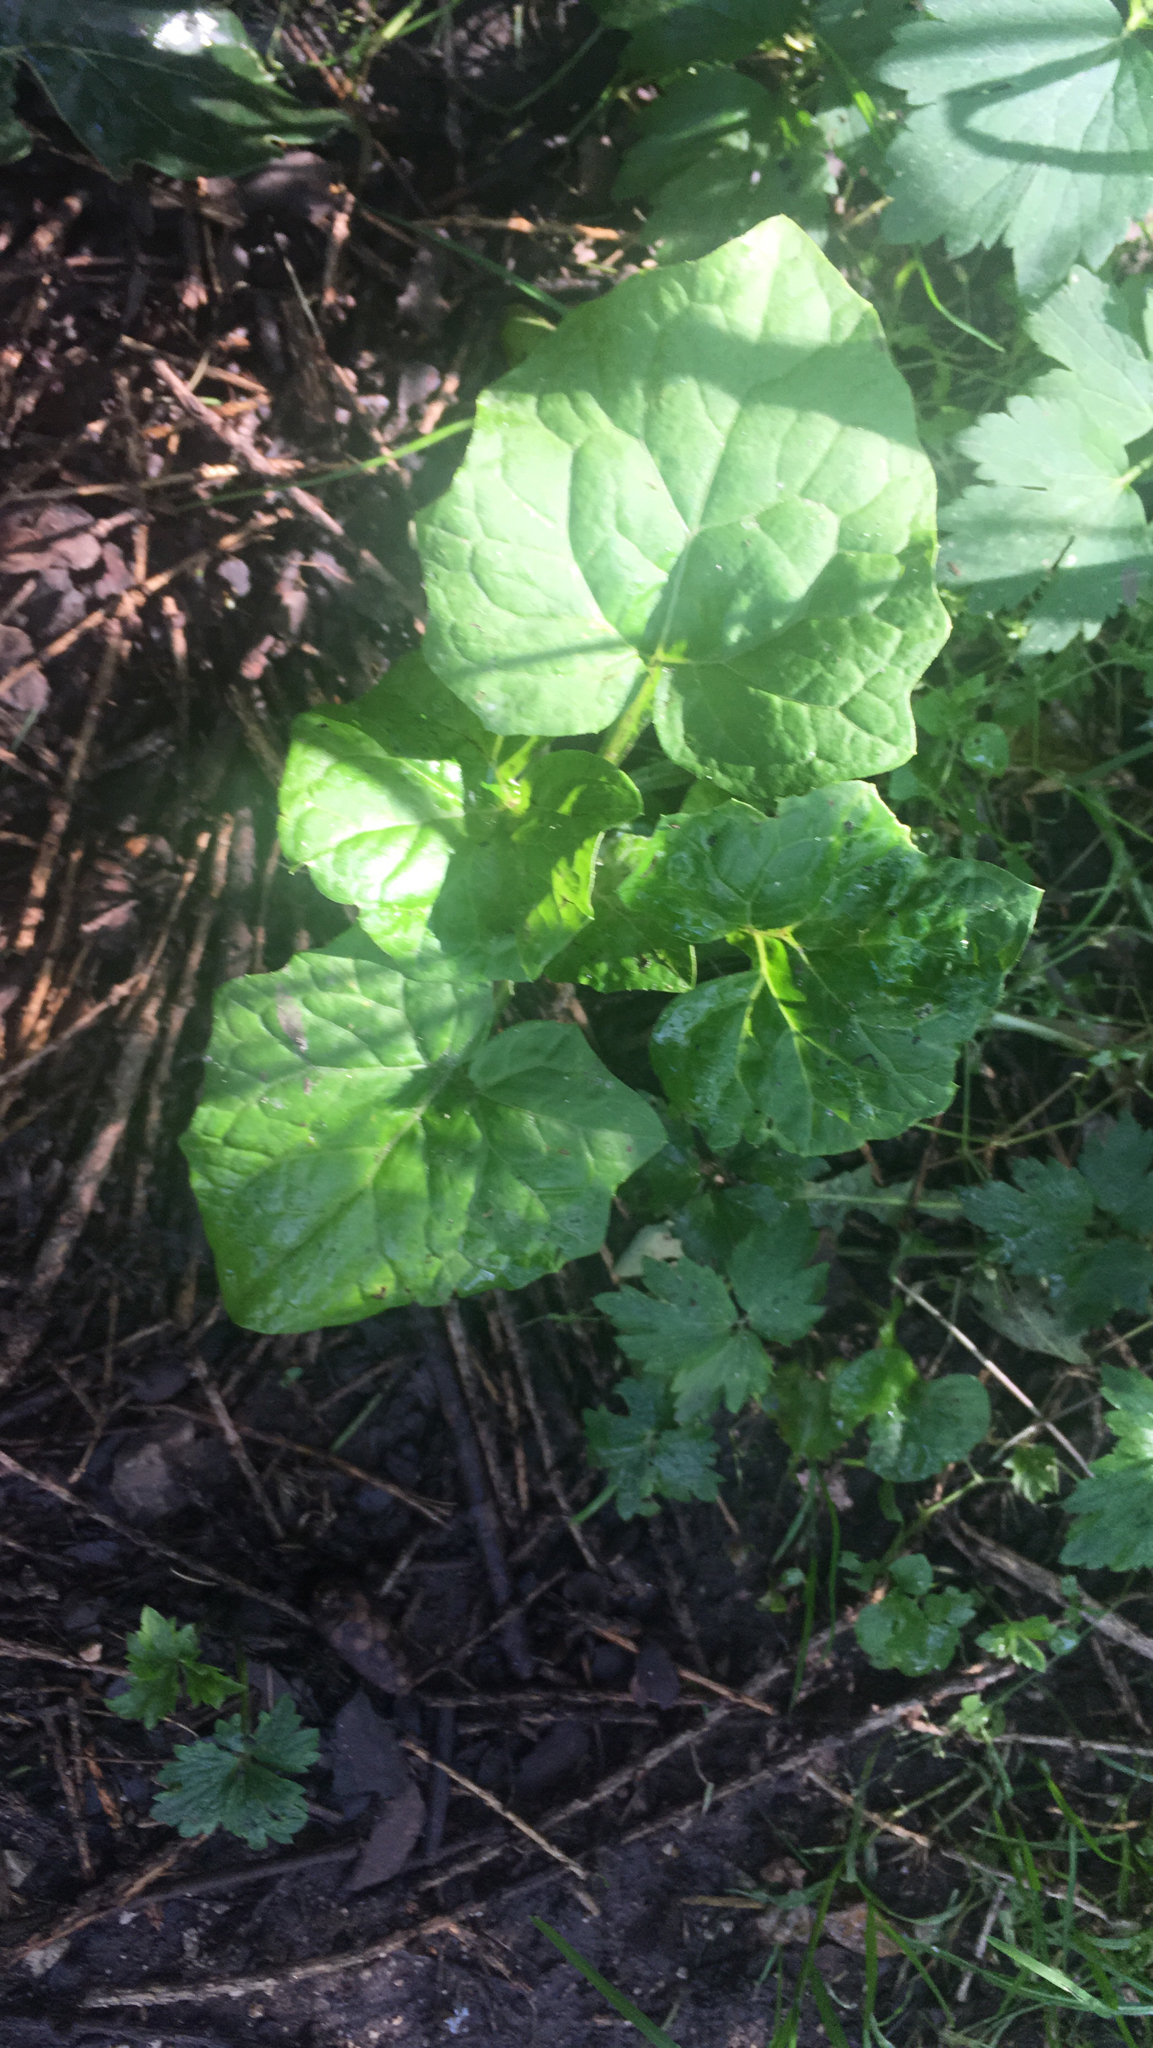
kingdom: Plantae
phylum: Tracheophyta
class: Magnoliopsida
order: Asterales
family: Asteraceae
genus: Adenocaulon
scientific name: Adenocaulon himalaicum
